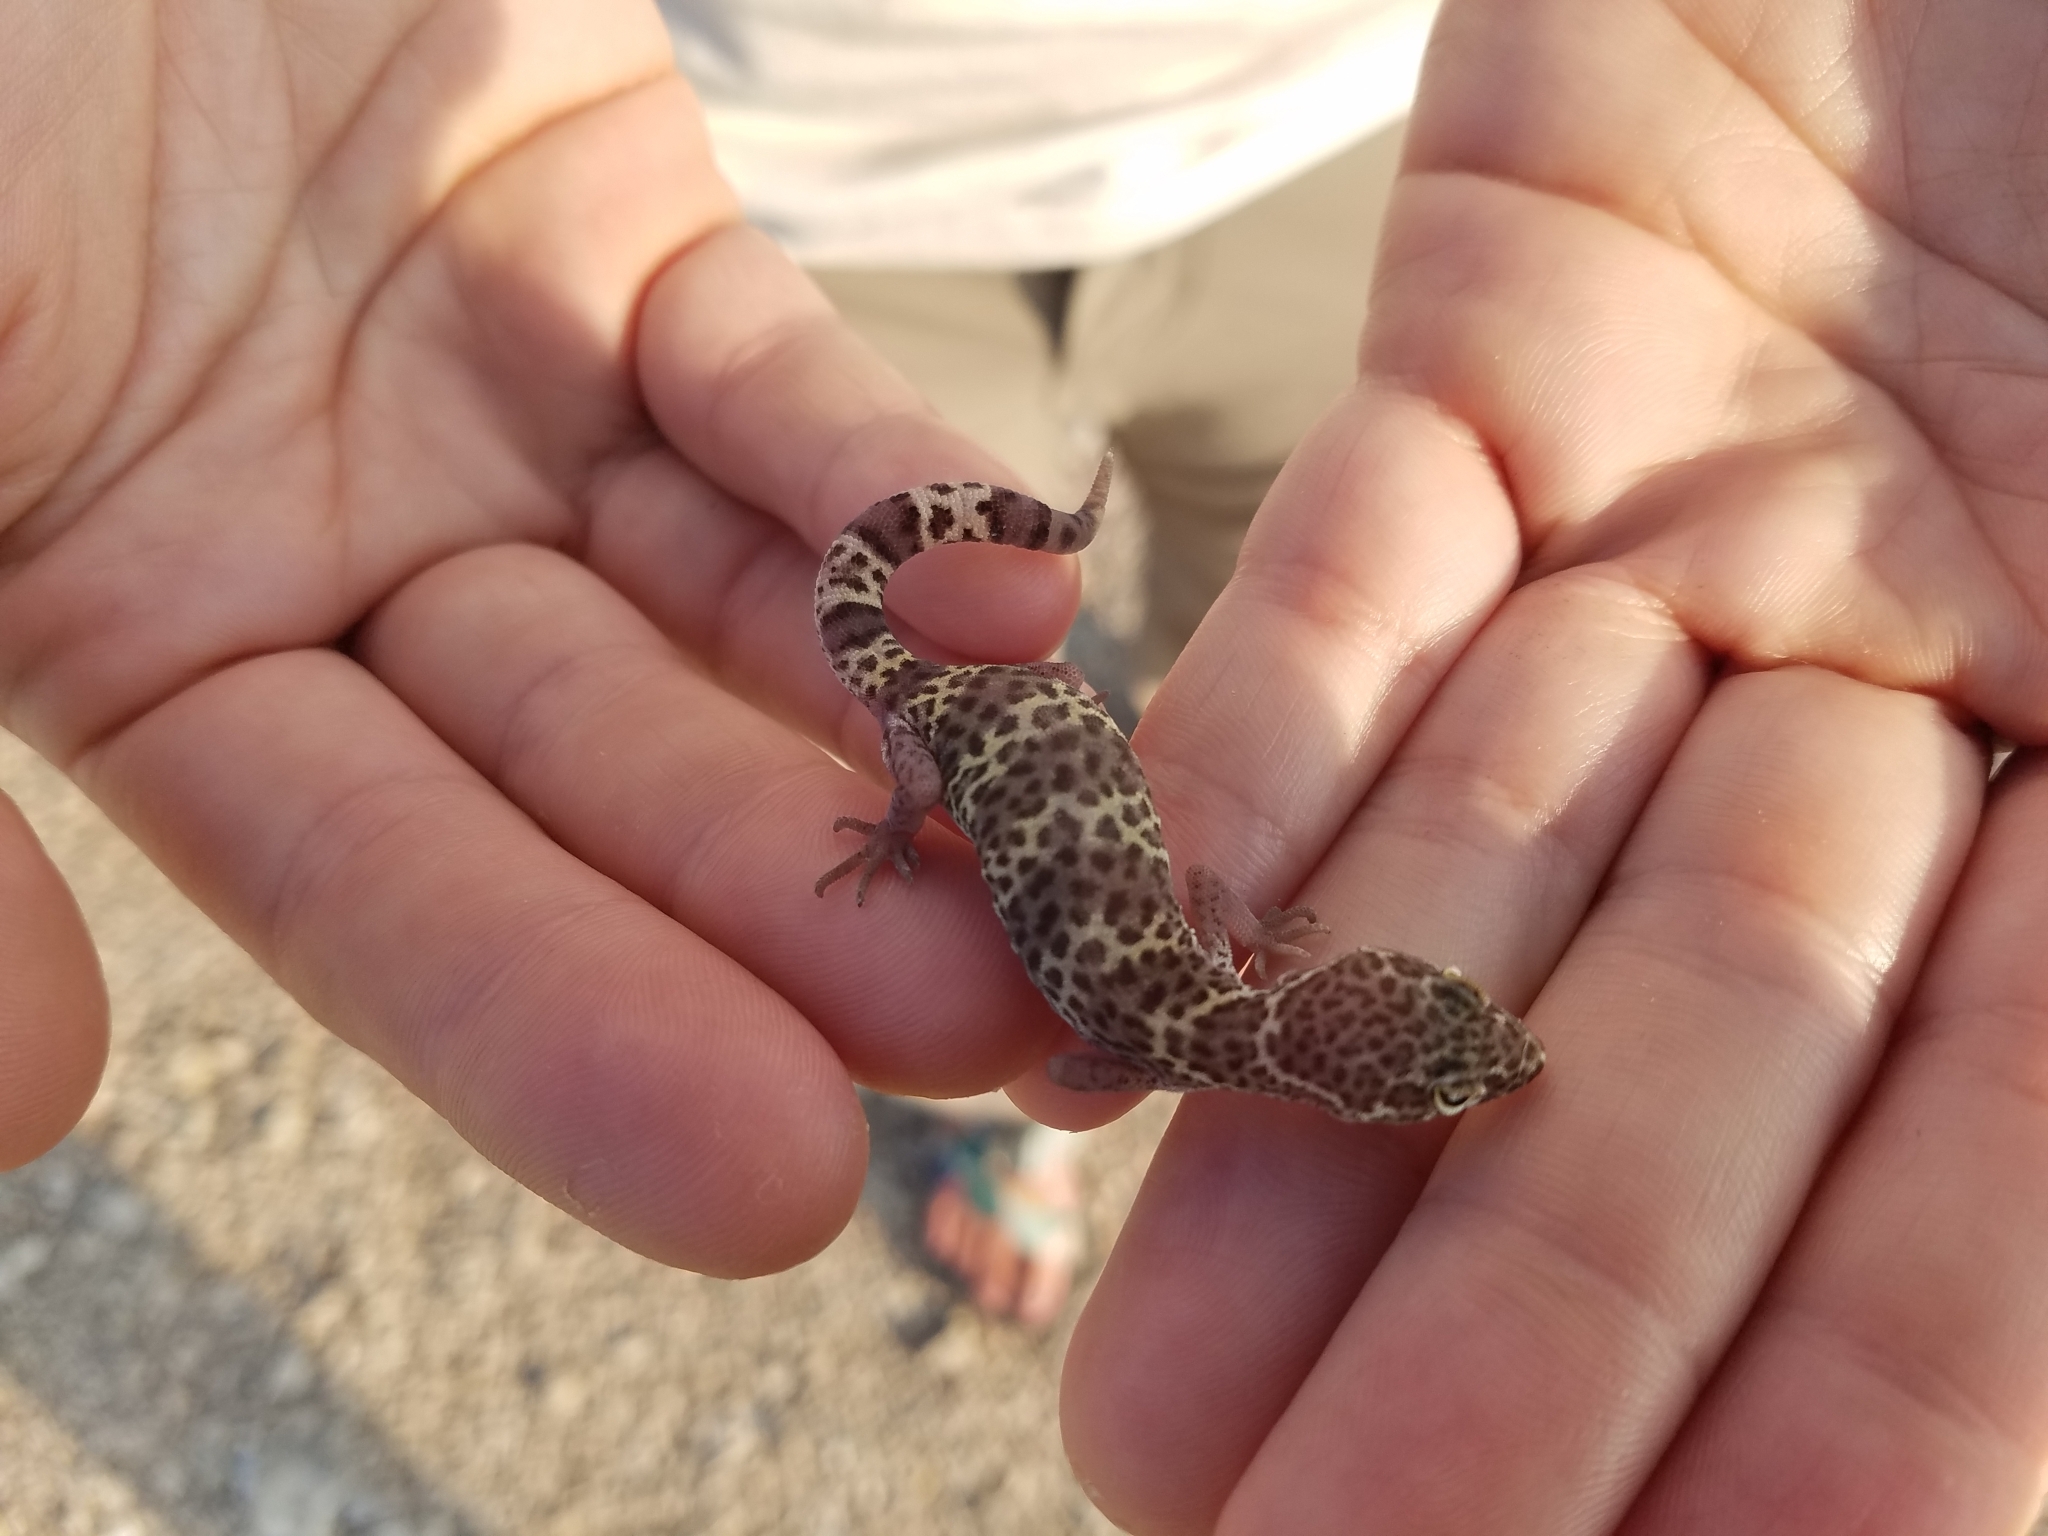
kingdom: Animalia
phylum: Chordata
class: Squamata
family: Eublepharidae
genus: Coleonyx
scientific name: Coleonyx brevis
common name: Texas banded gecko
